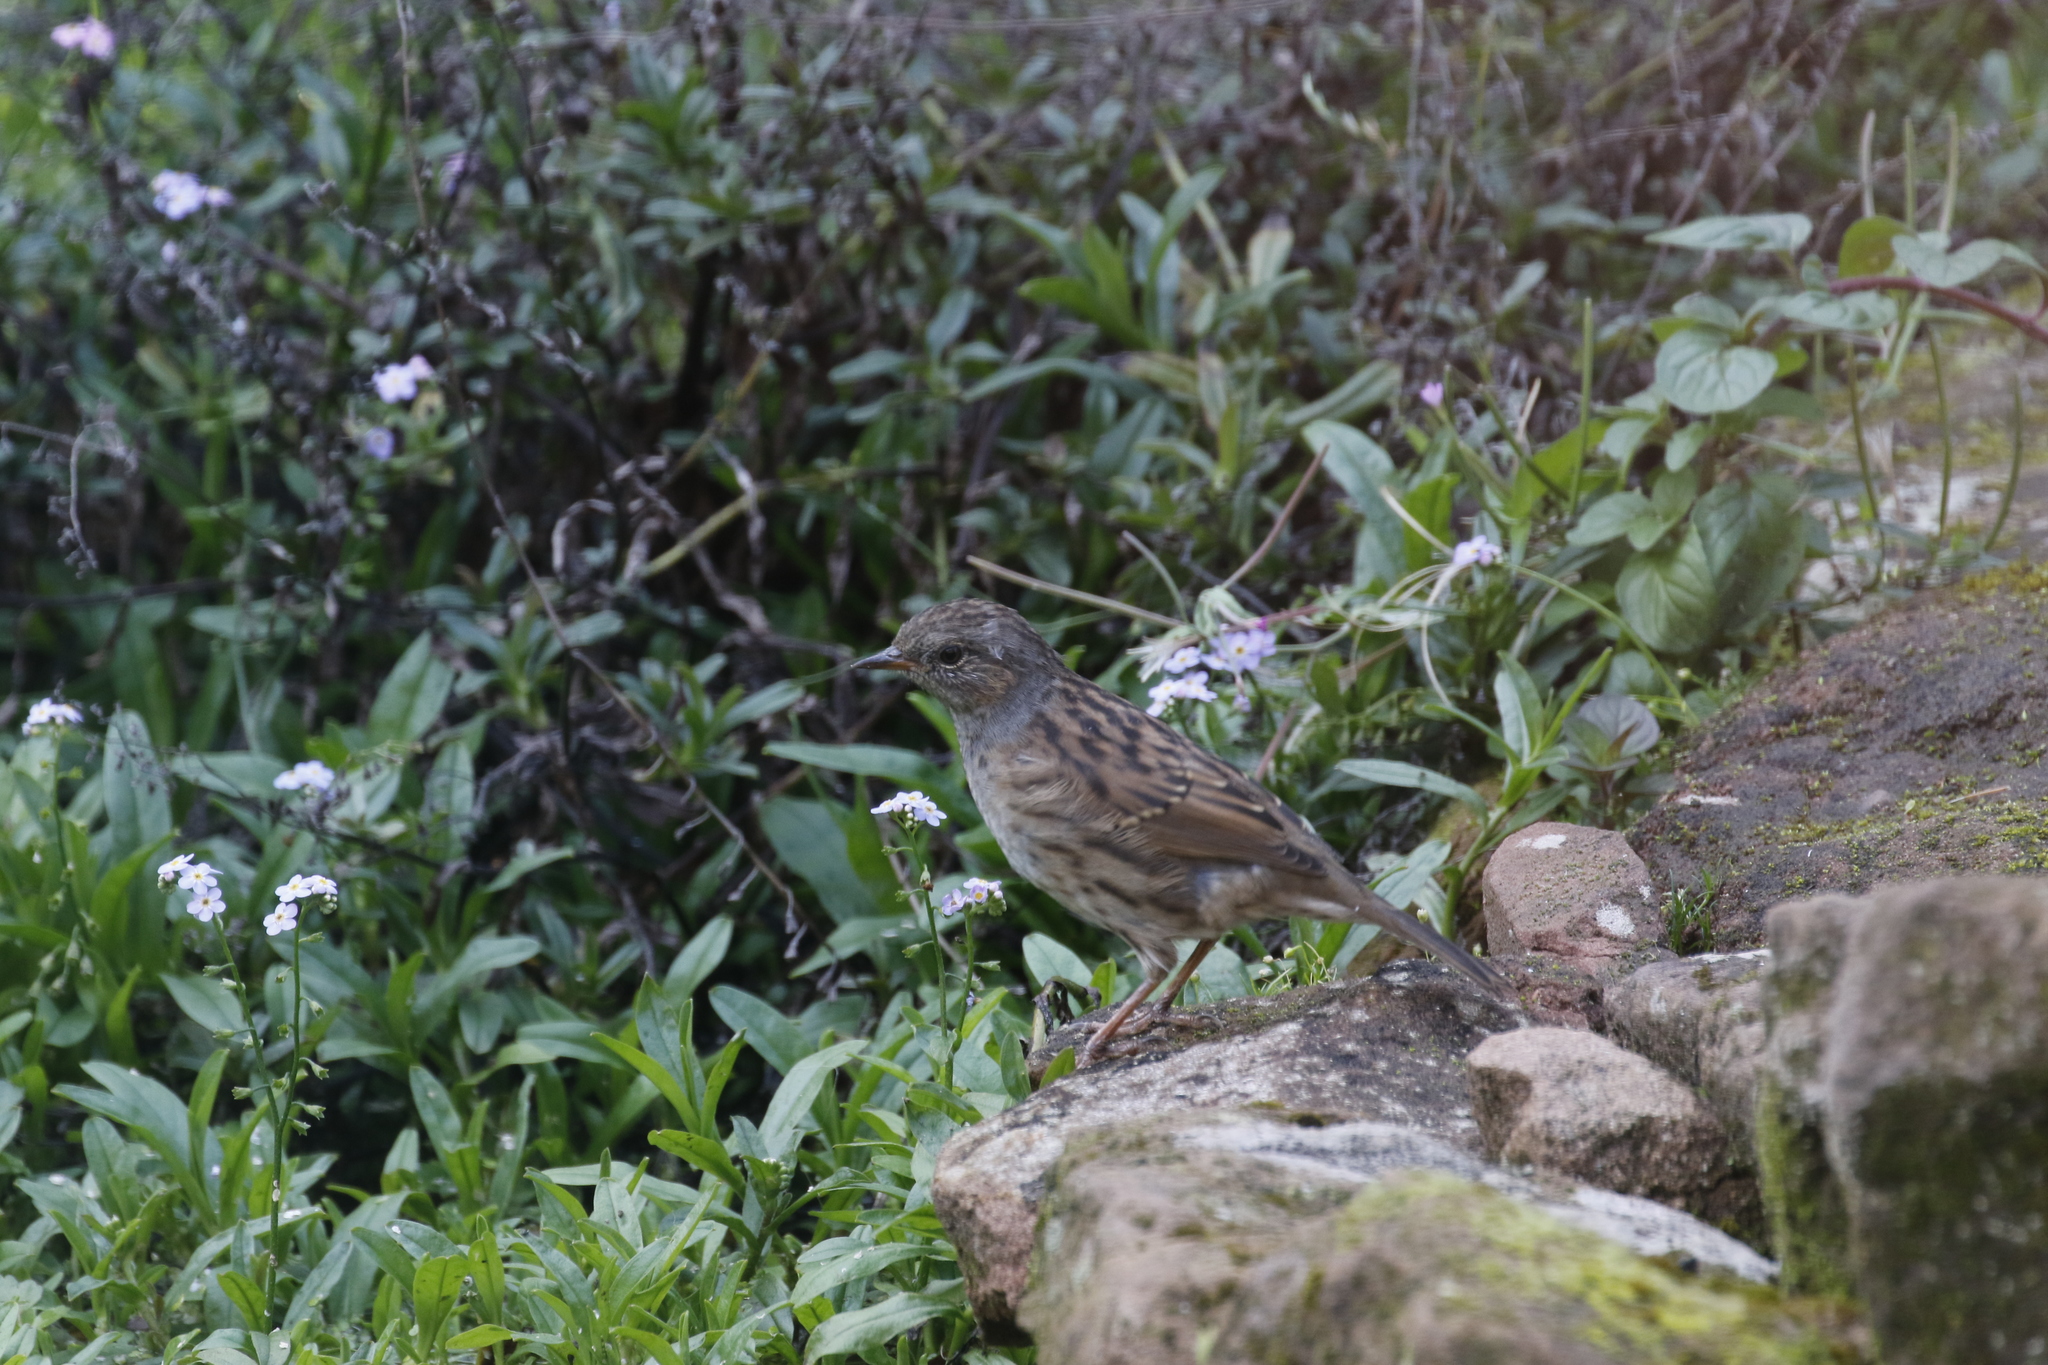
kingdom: Animalia
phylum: Chordata
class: Aves
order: Passeriformes
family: Prunellidae
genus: Prunella
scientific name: Prunella modularis
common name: Dunnock
